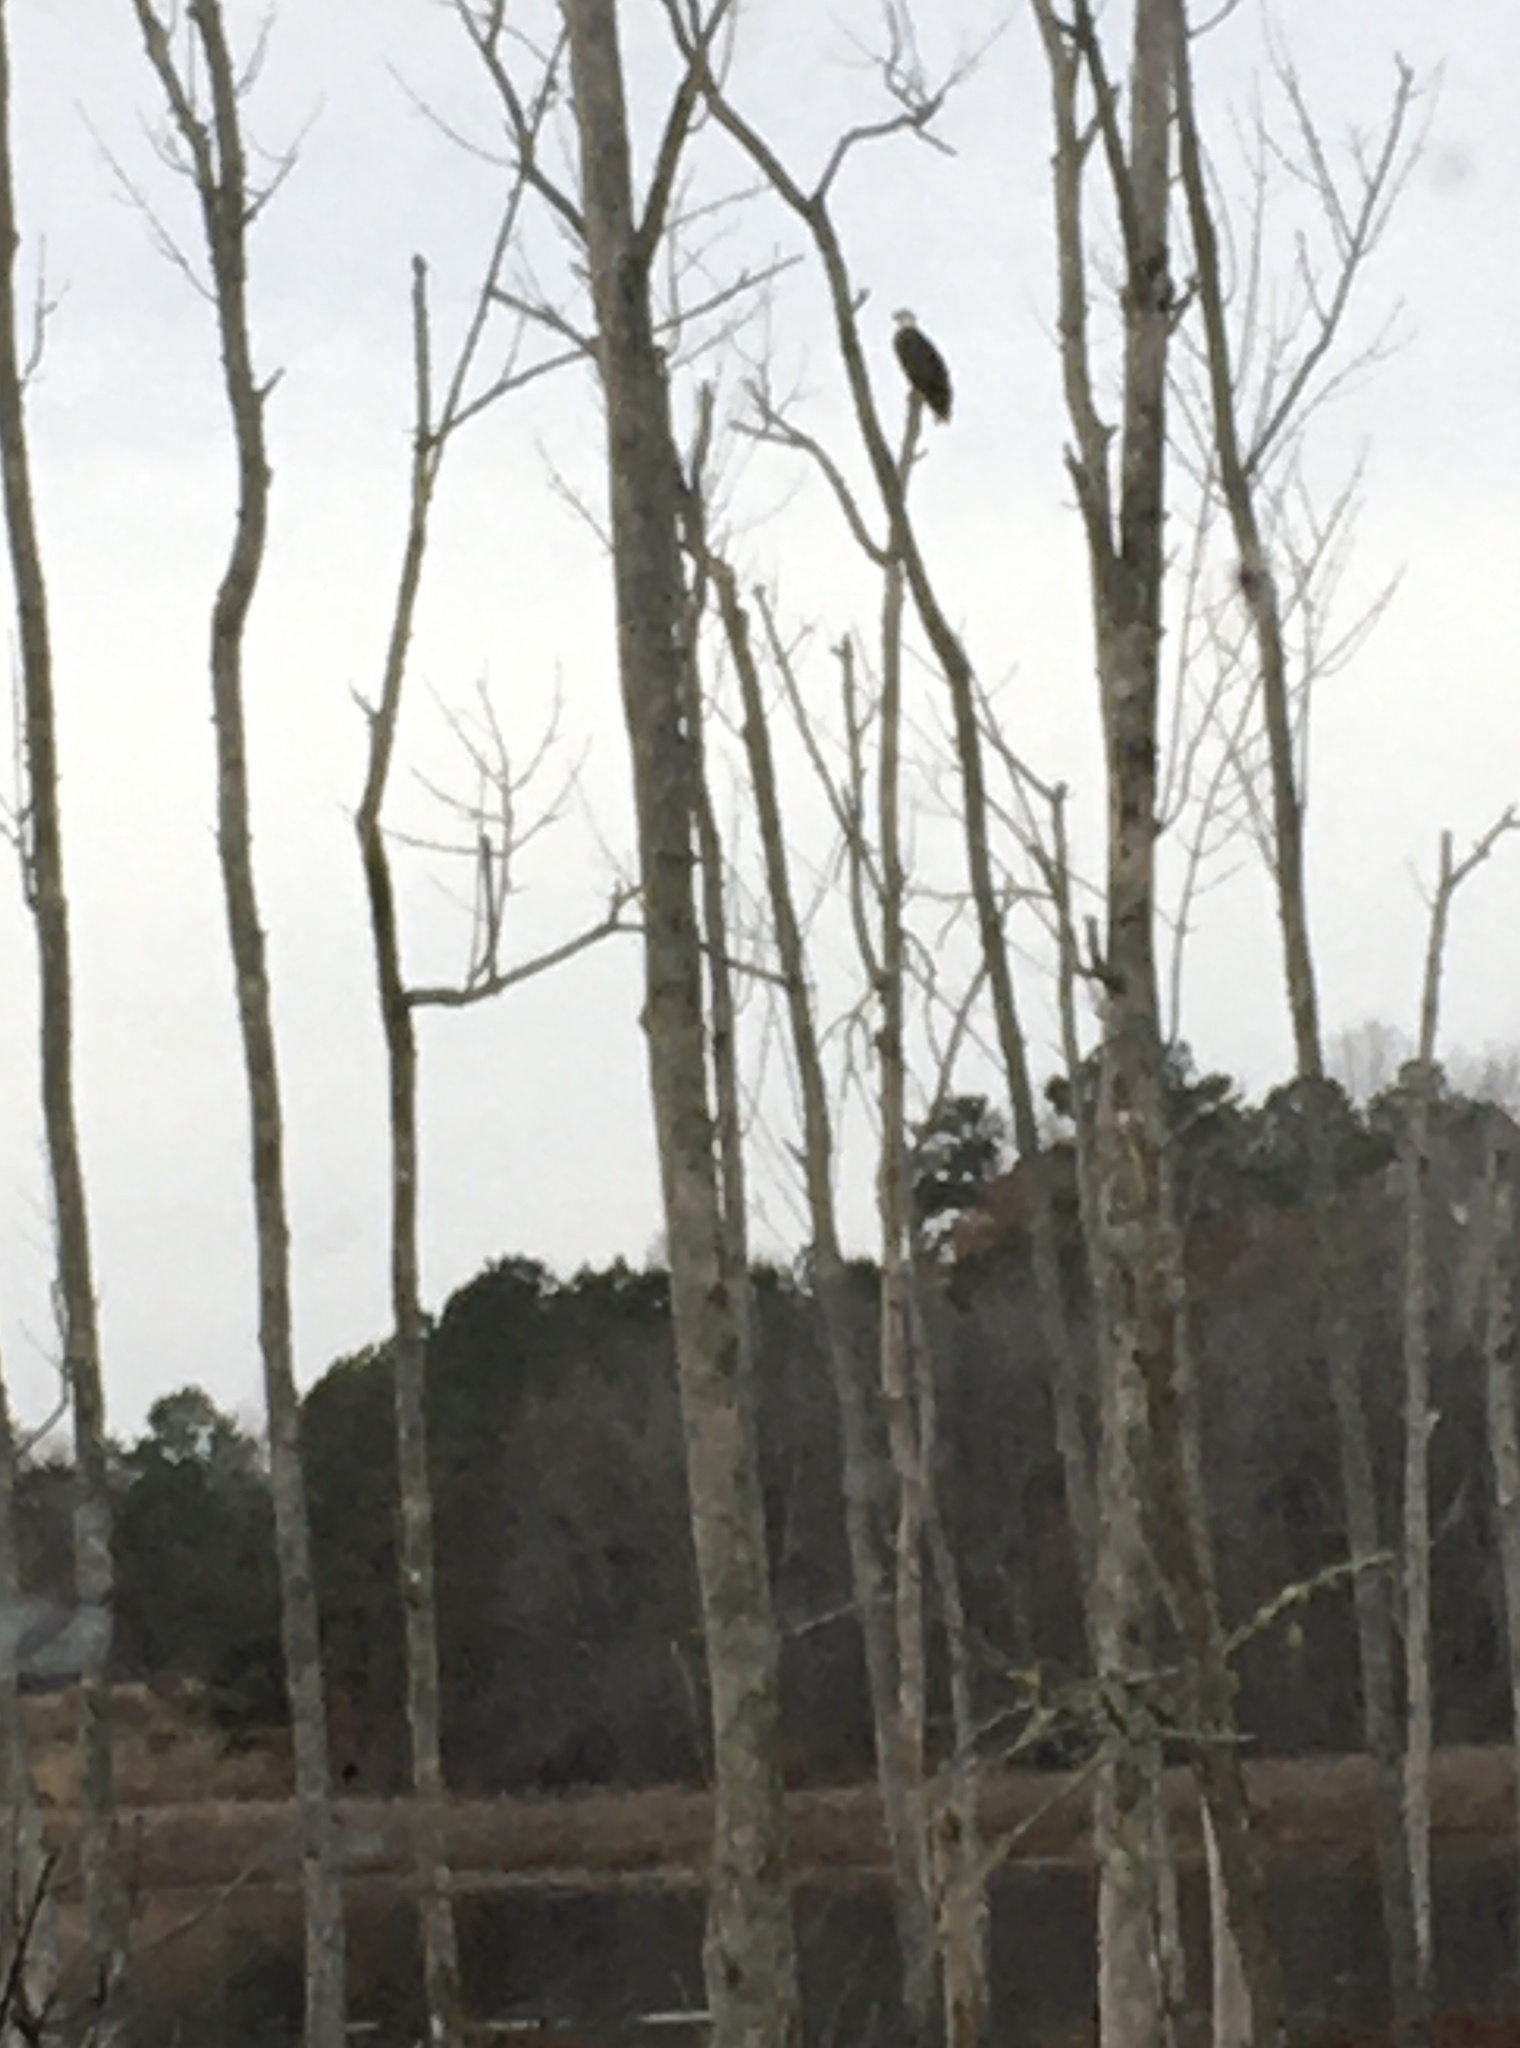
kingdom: Animalia
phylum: Chordata
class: Aves
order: Accipitriformes
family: Accipitridae
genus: Haliaeetus
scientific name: Haliaeetus leucocephalus
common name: Bald eagle
